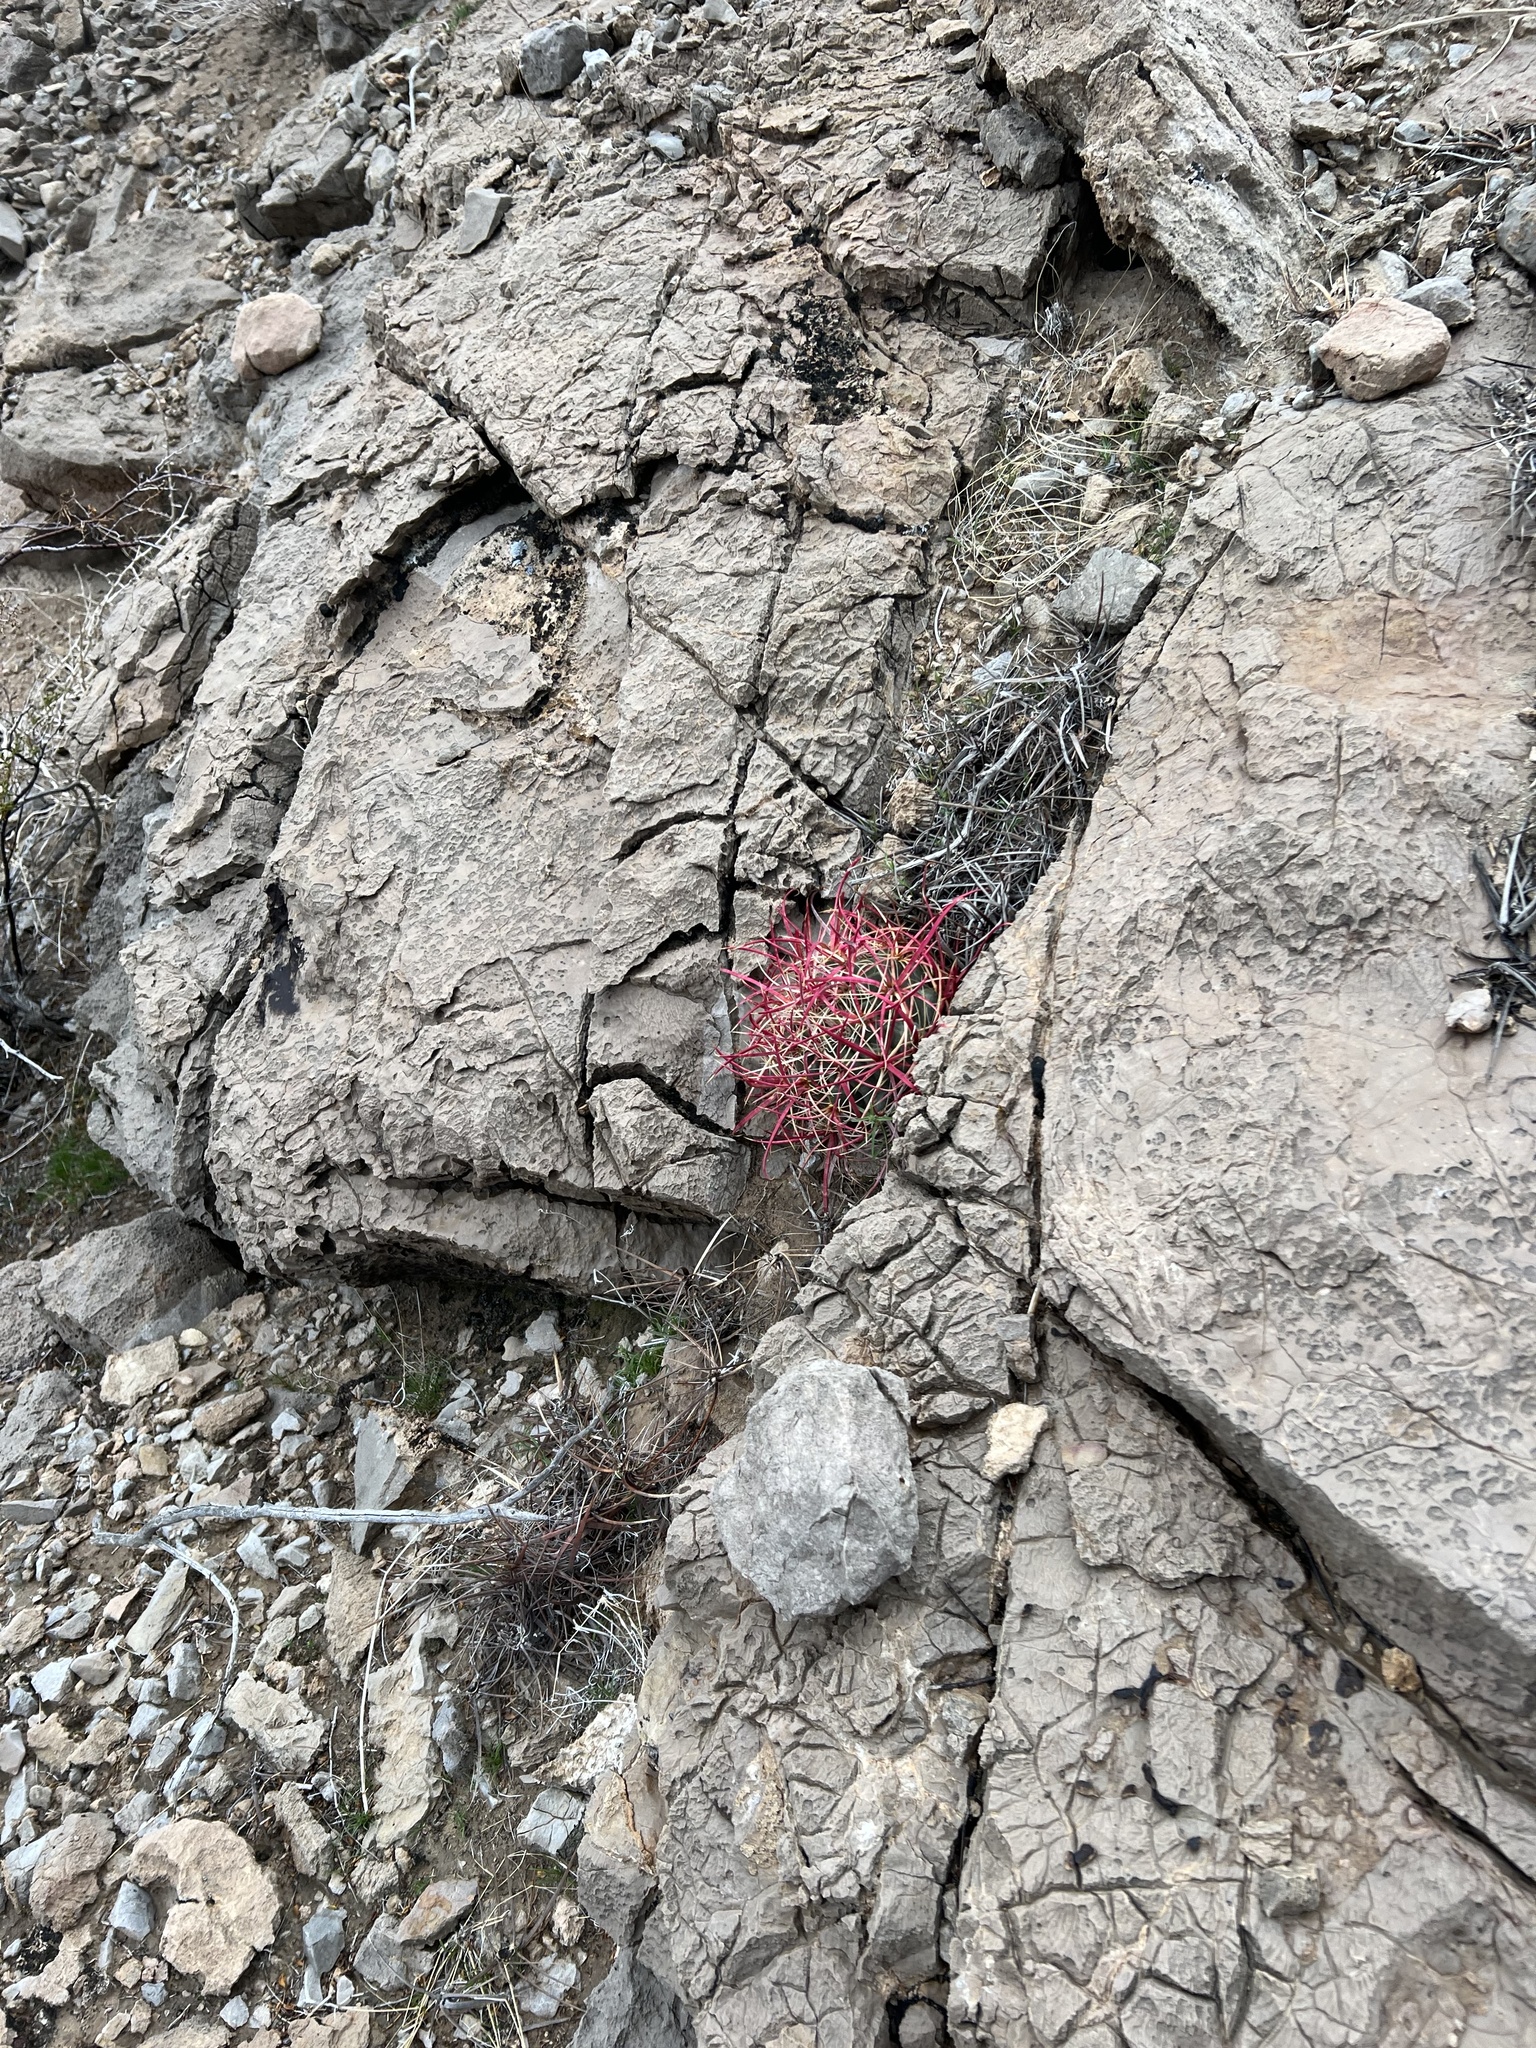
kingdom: Plantae
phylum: Tracheophyta
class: Magnoliopsida
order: Caryophyllales
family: Cactaceae
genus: Ferocactus
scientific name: Ferocactus cylindraceus
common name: California barrel cactus
